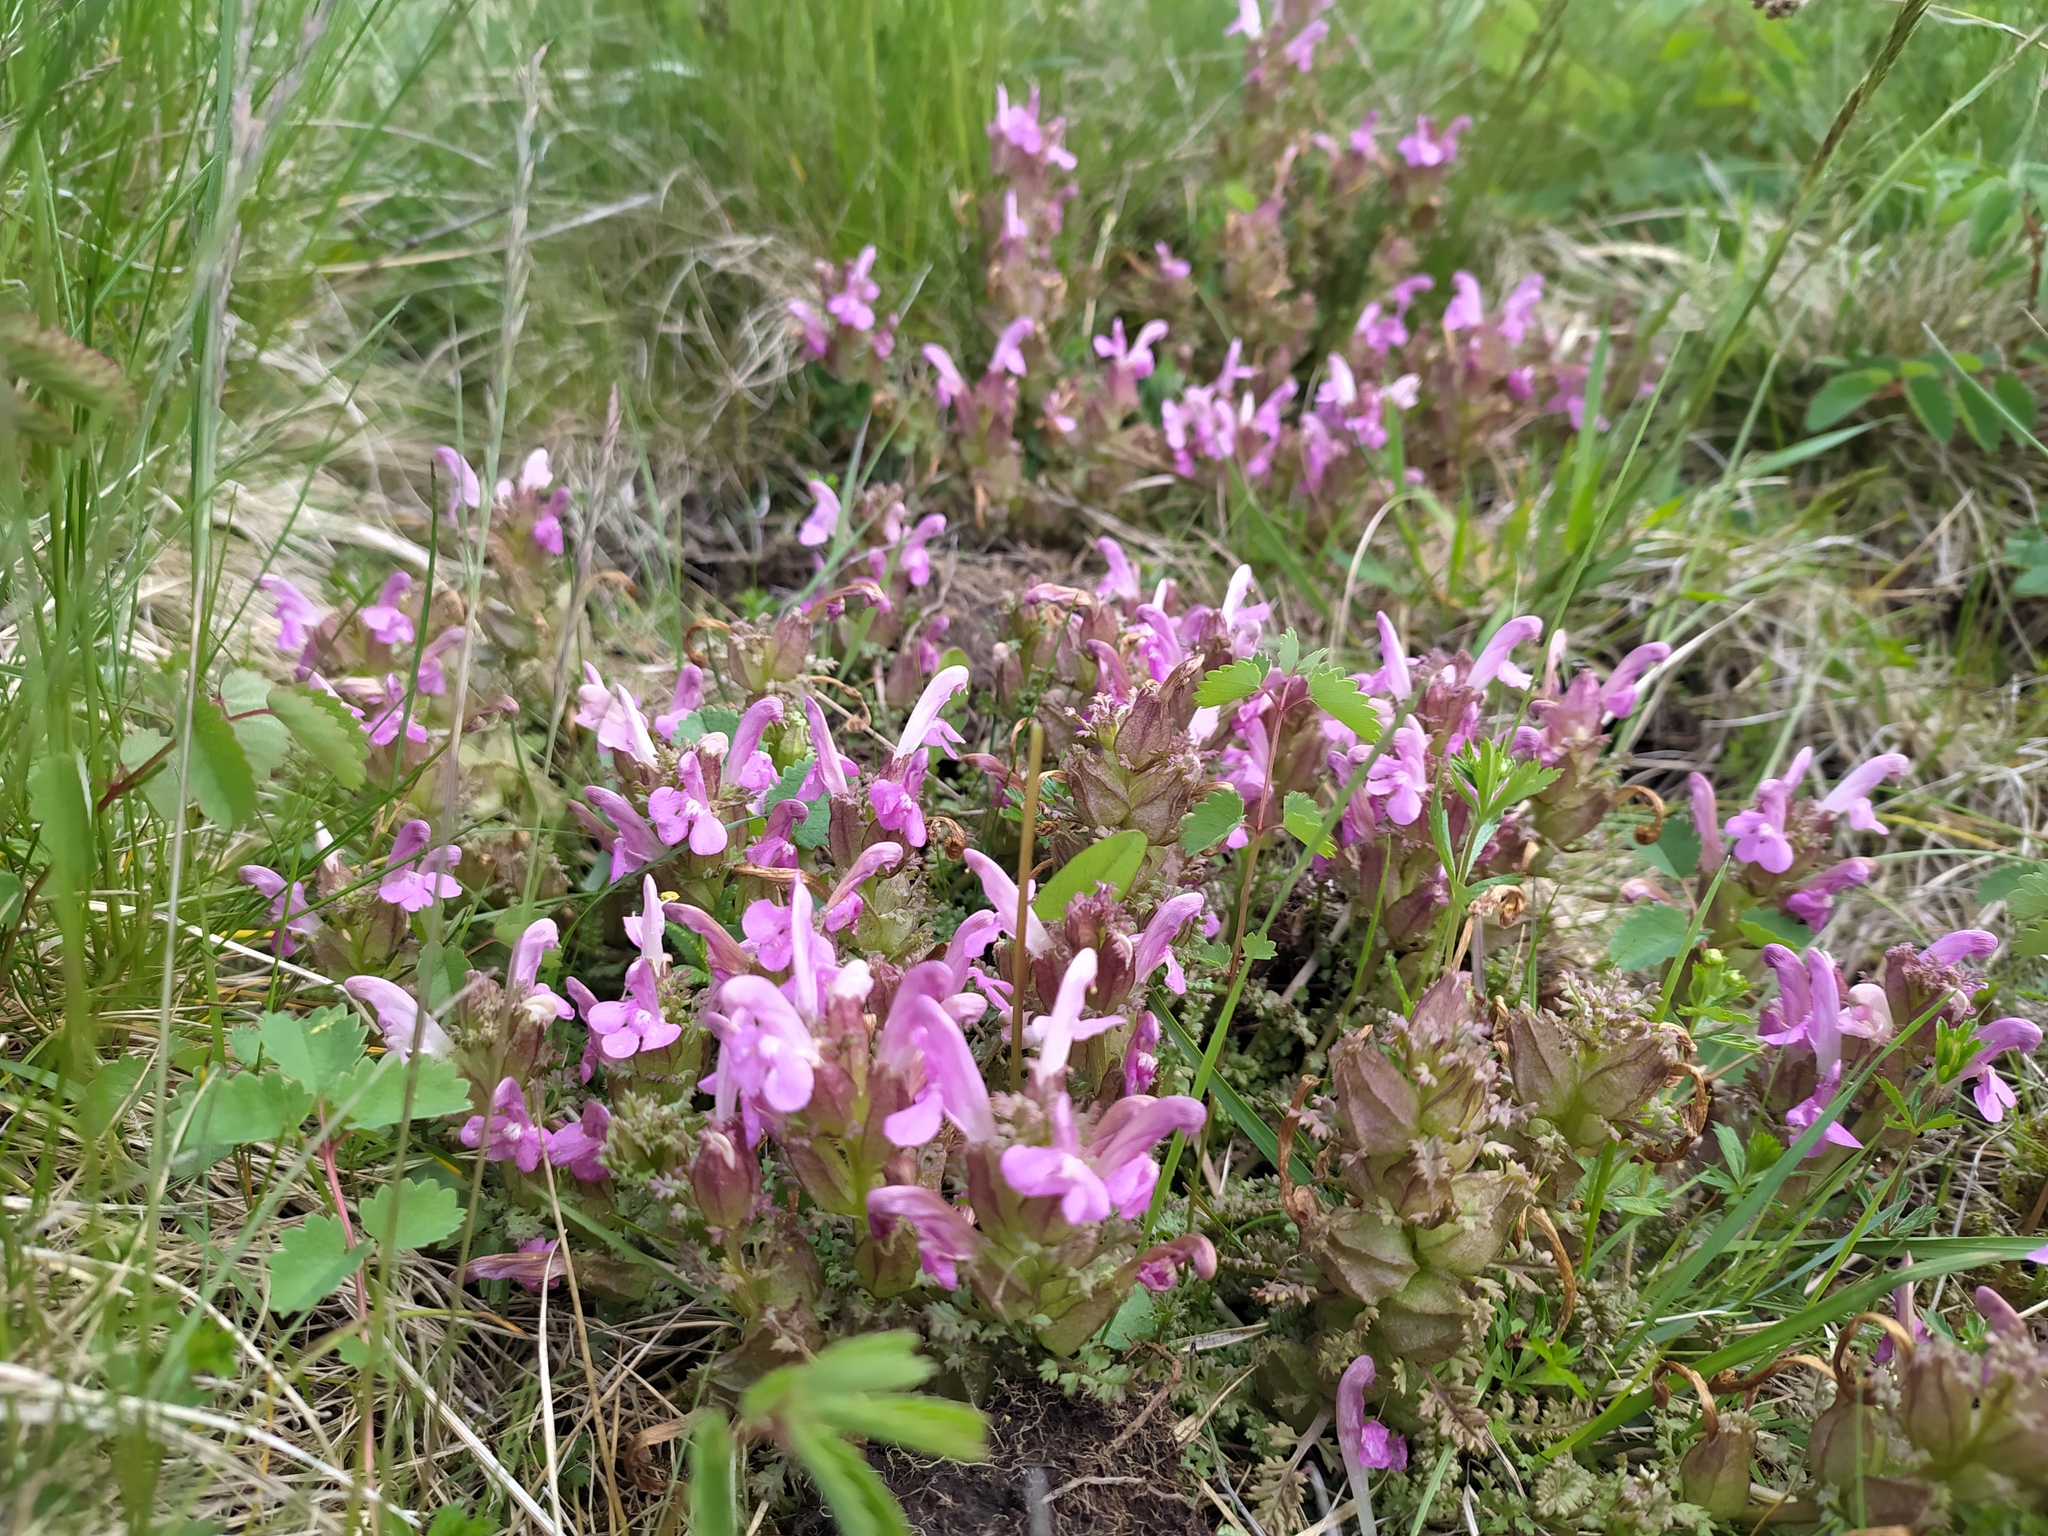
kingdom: Plantae
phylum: Tracheophyta
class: Magnoliopsida
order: Lamiales
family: Orobanchaceae
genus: Pedicularis
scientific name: Pedicularis sylvatica
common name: Lousewort
